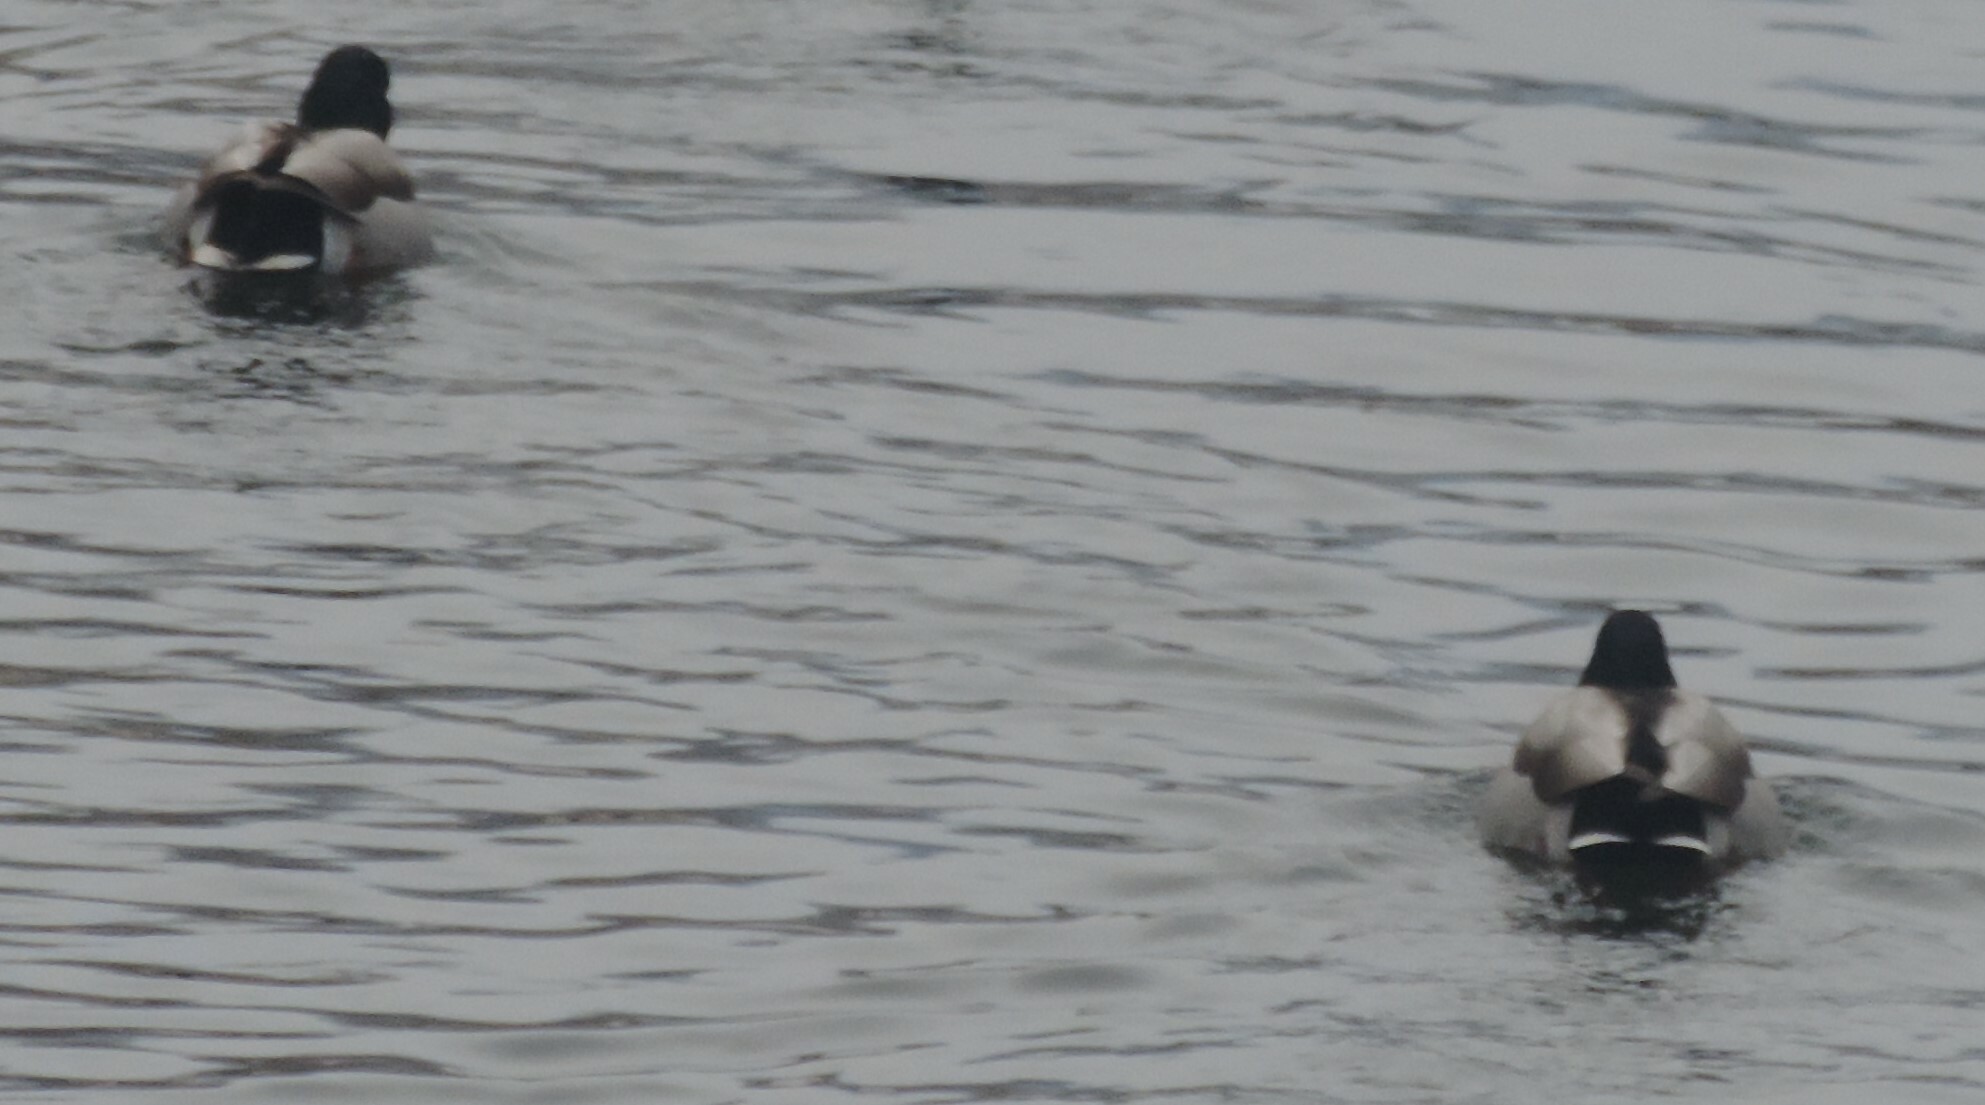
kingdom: Animalia
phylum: Chordata
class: Aves
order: Anseriformes
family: Anatidae
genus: Anas
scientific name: Anas platyrhynchos
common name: Mallard
